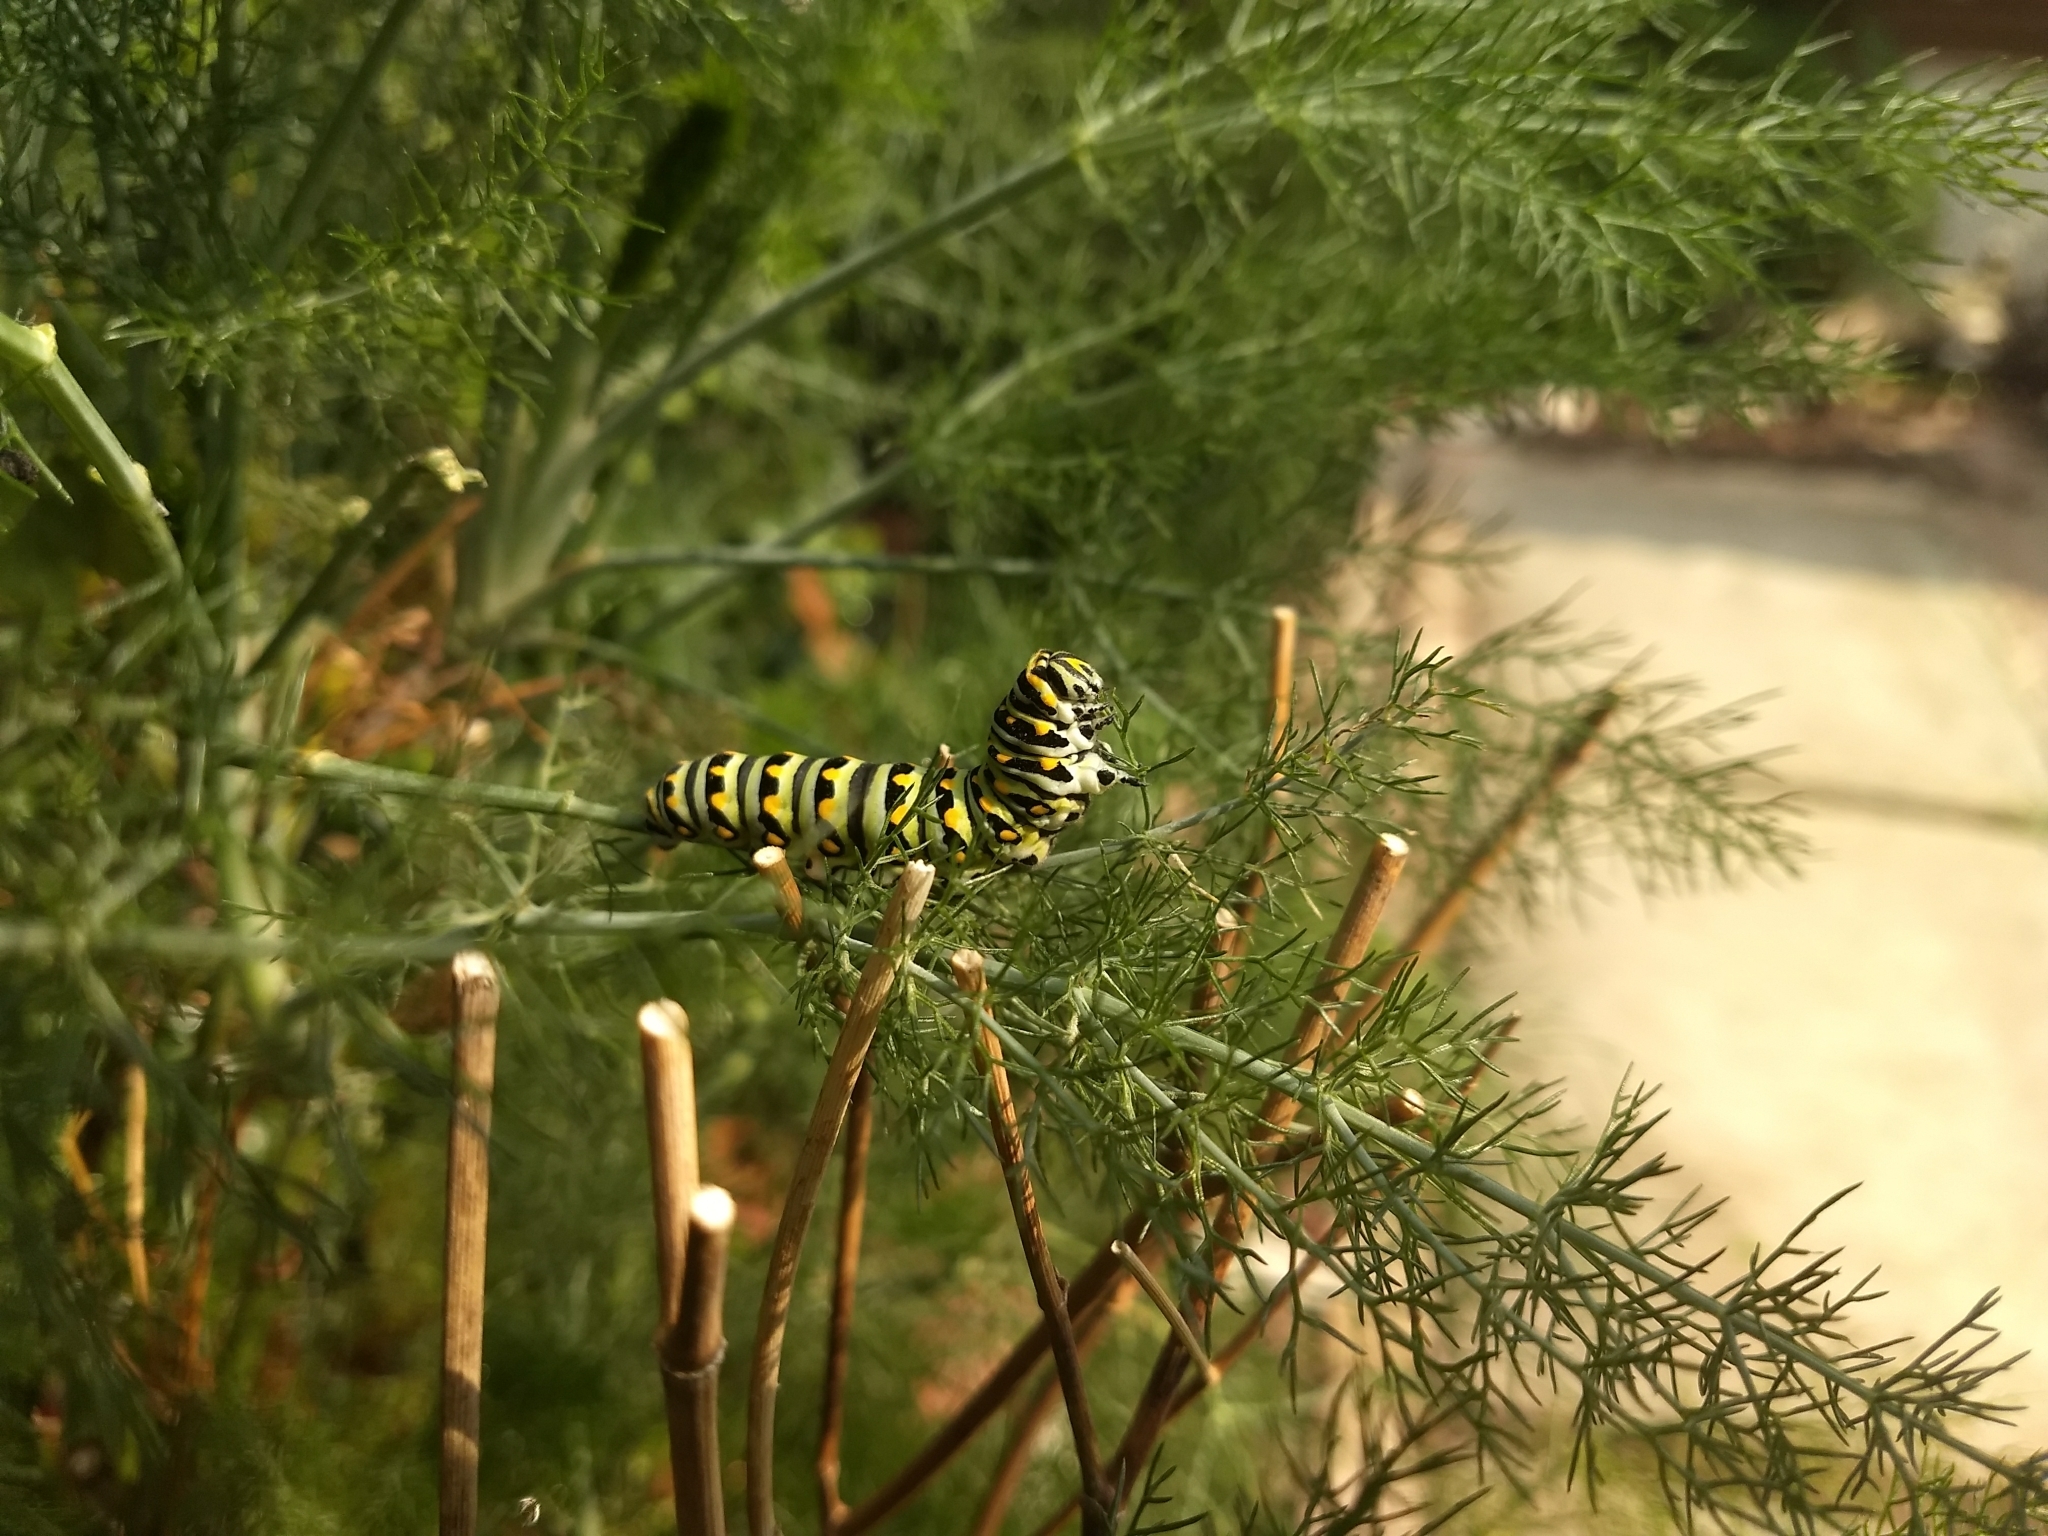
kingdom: Animalia
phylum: Arthropoda
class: Insecta
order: Lepidoptera
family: Papilionidae
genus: Papilio
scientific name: Papilio polyxenes
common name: Black swallowtail
